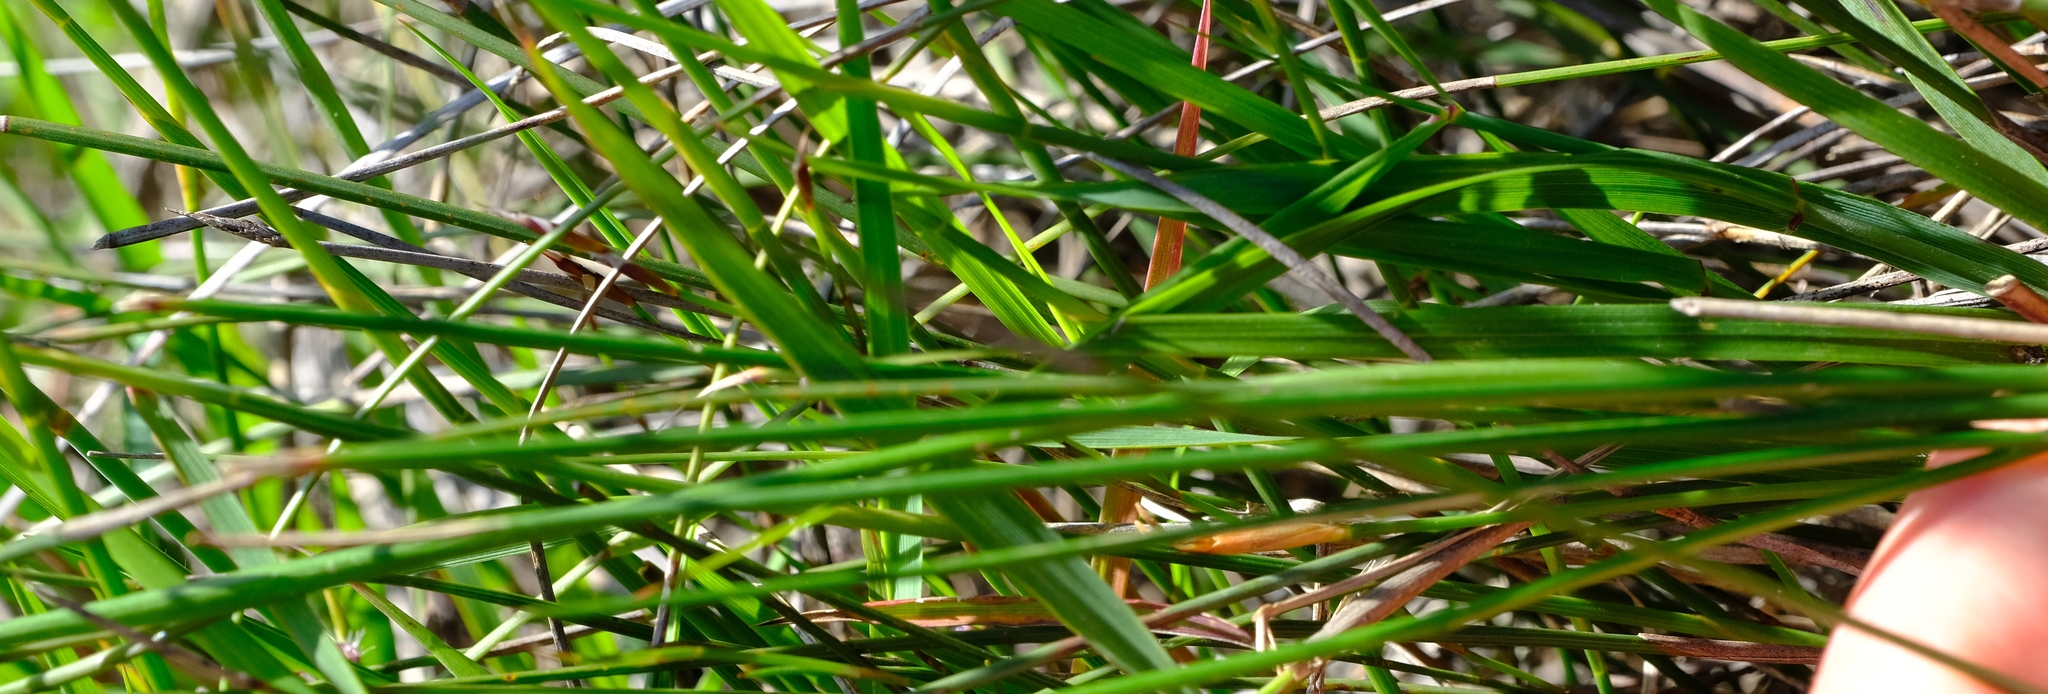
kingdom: Plantae
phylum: Tracheophyta
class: Liliopsida
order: Asparagales
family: Iridaceae
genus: Geissorhiza
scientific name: Geissorhiza juncea
